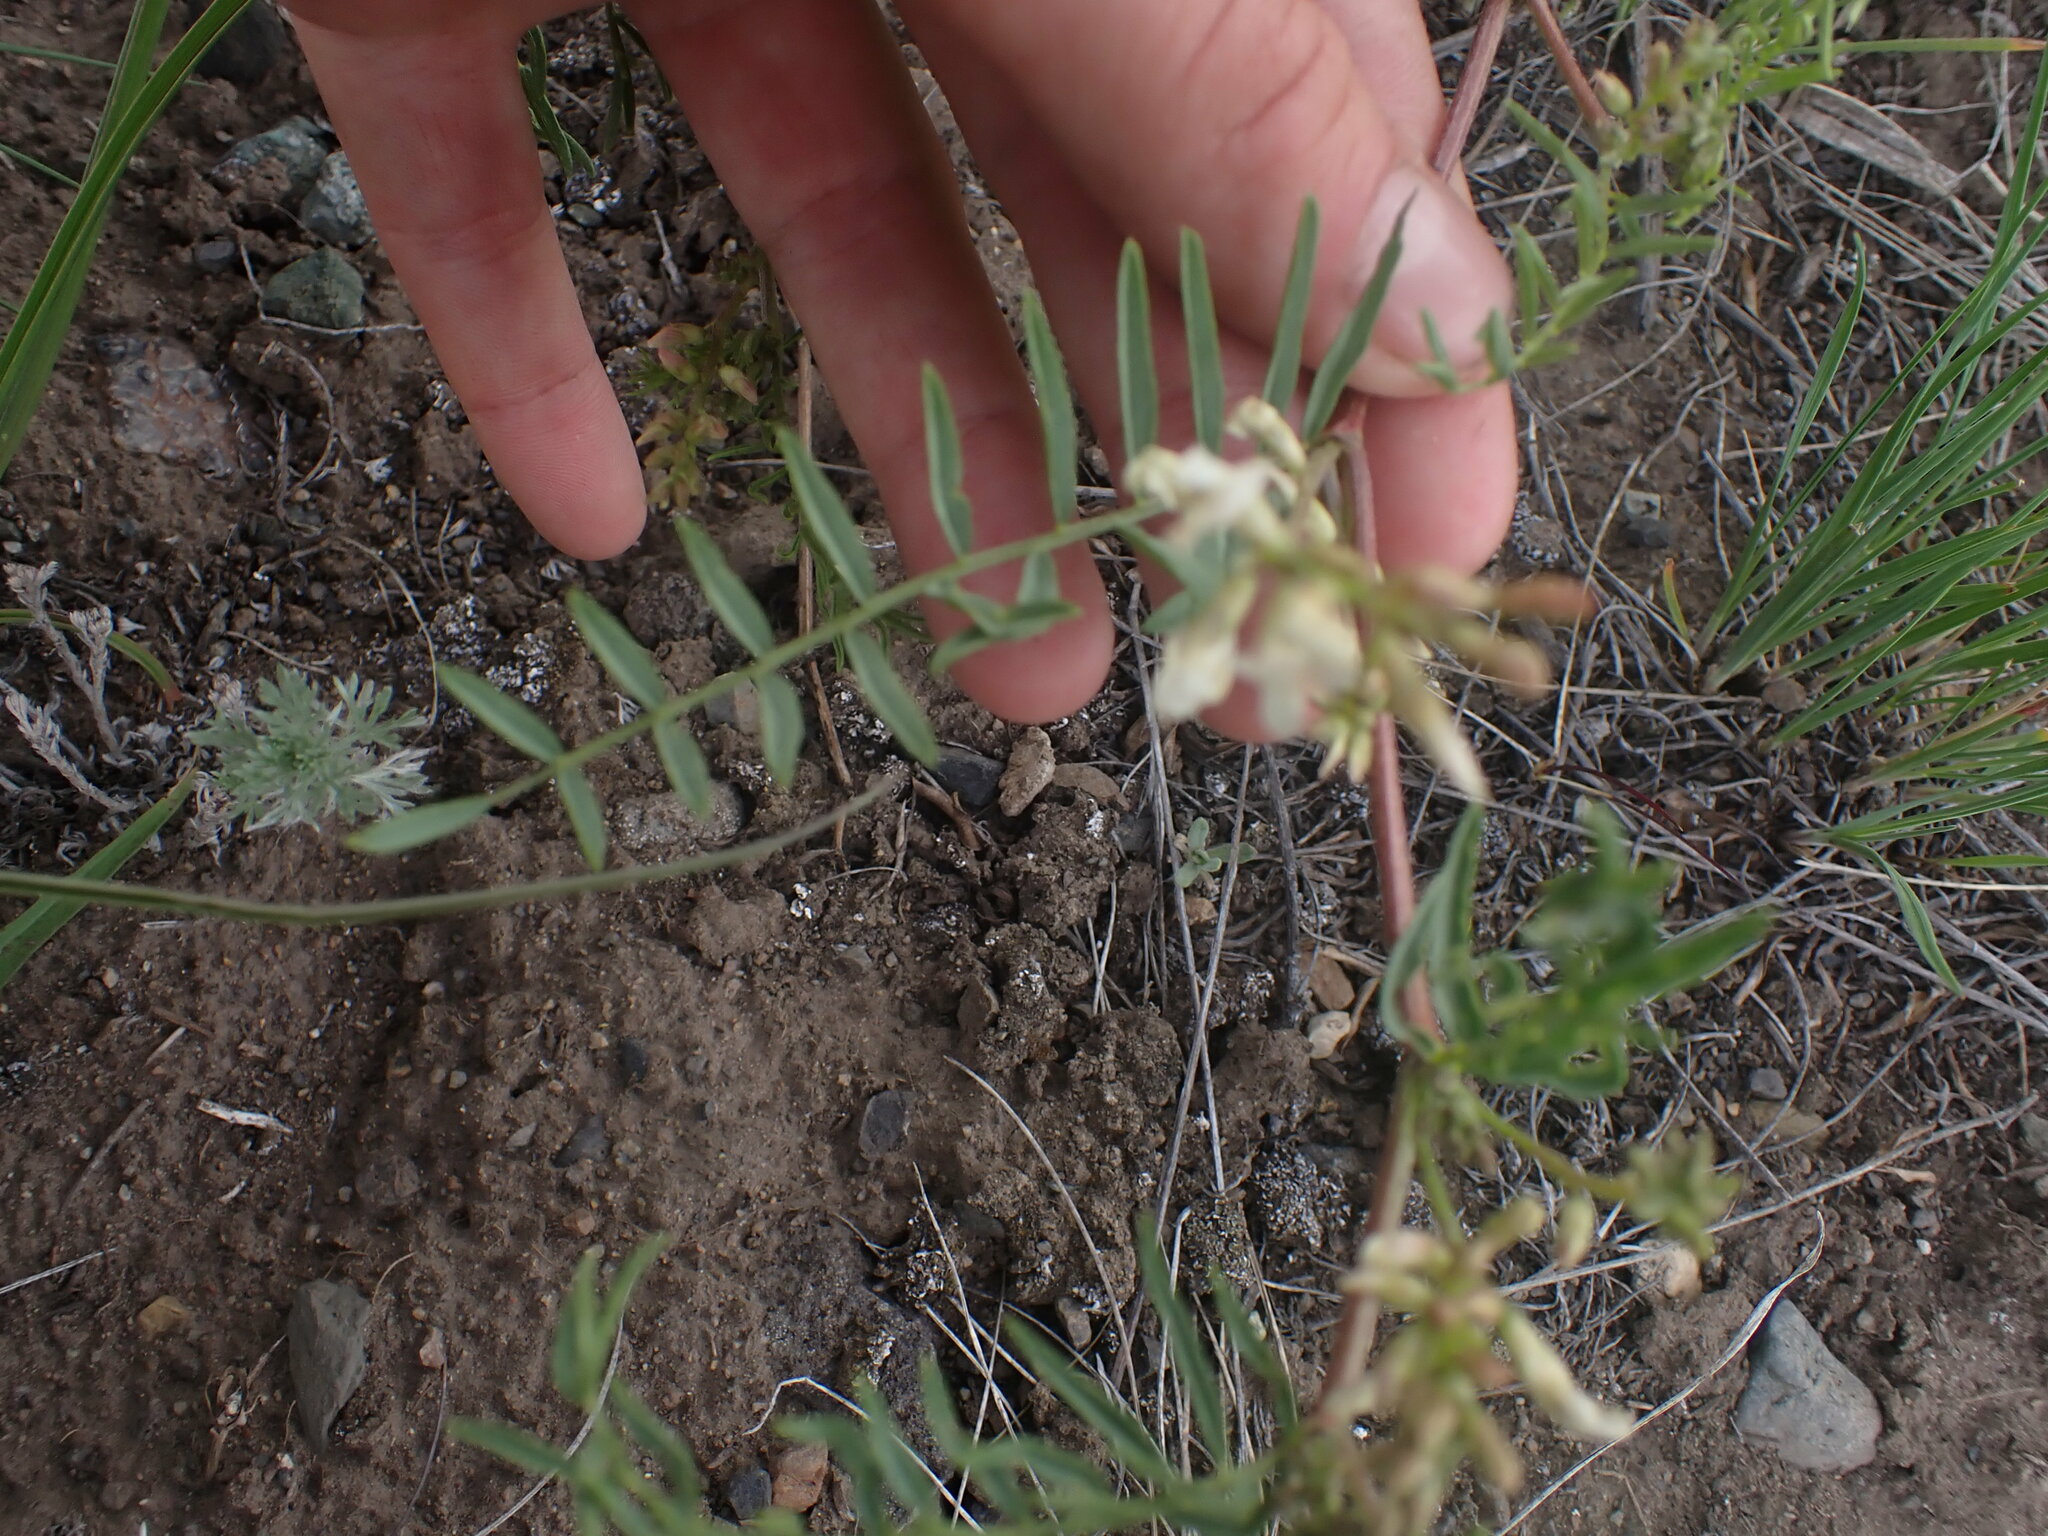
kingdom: Plantae
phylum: Tracheophyta
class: Magnoliopsida
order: Fabales
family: Fabaceae
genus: Astragalus
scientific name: Astragalus tenellus
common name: Pulse milk-vetch
